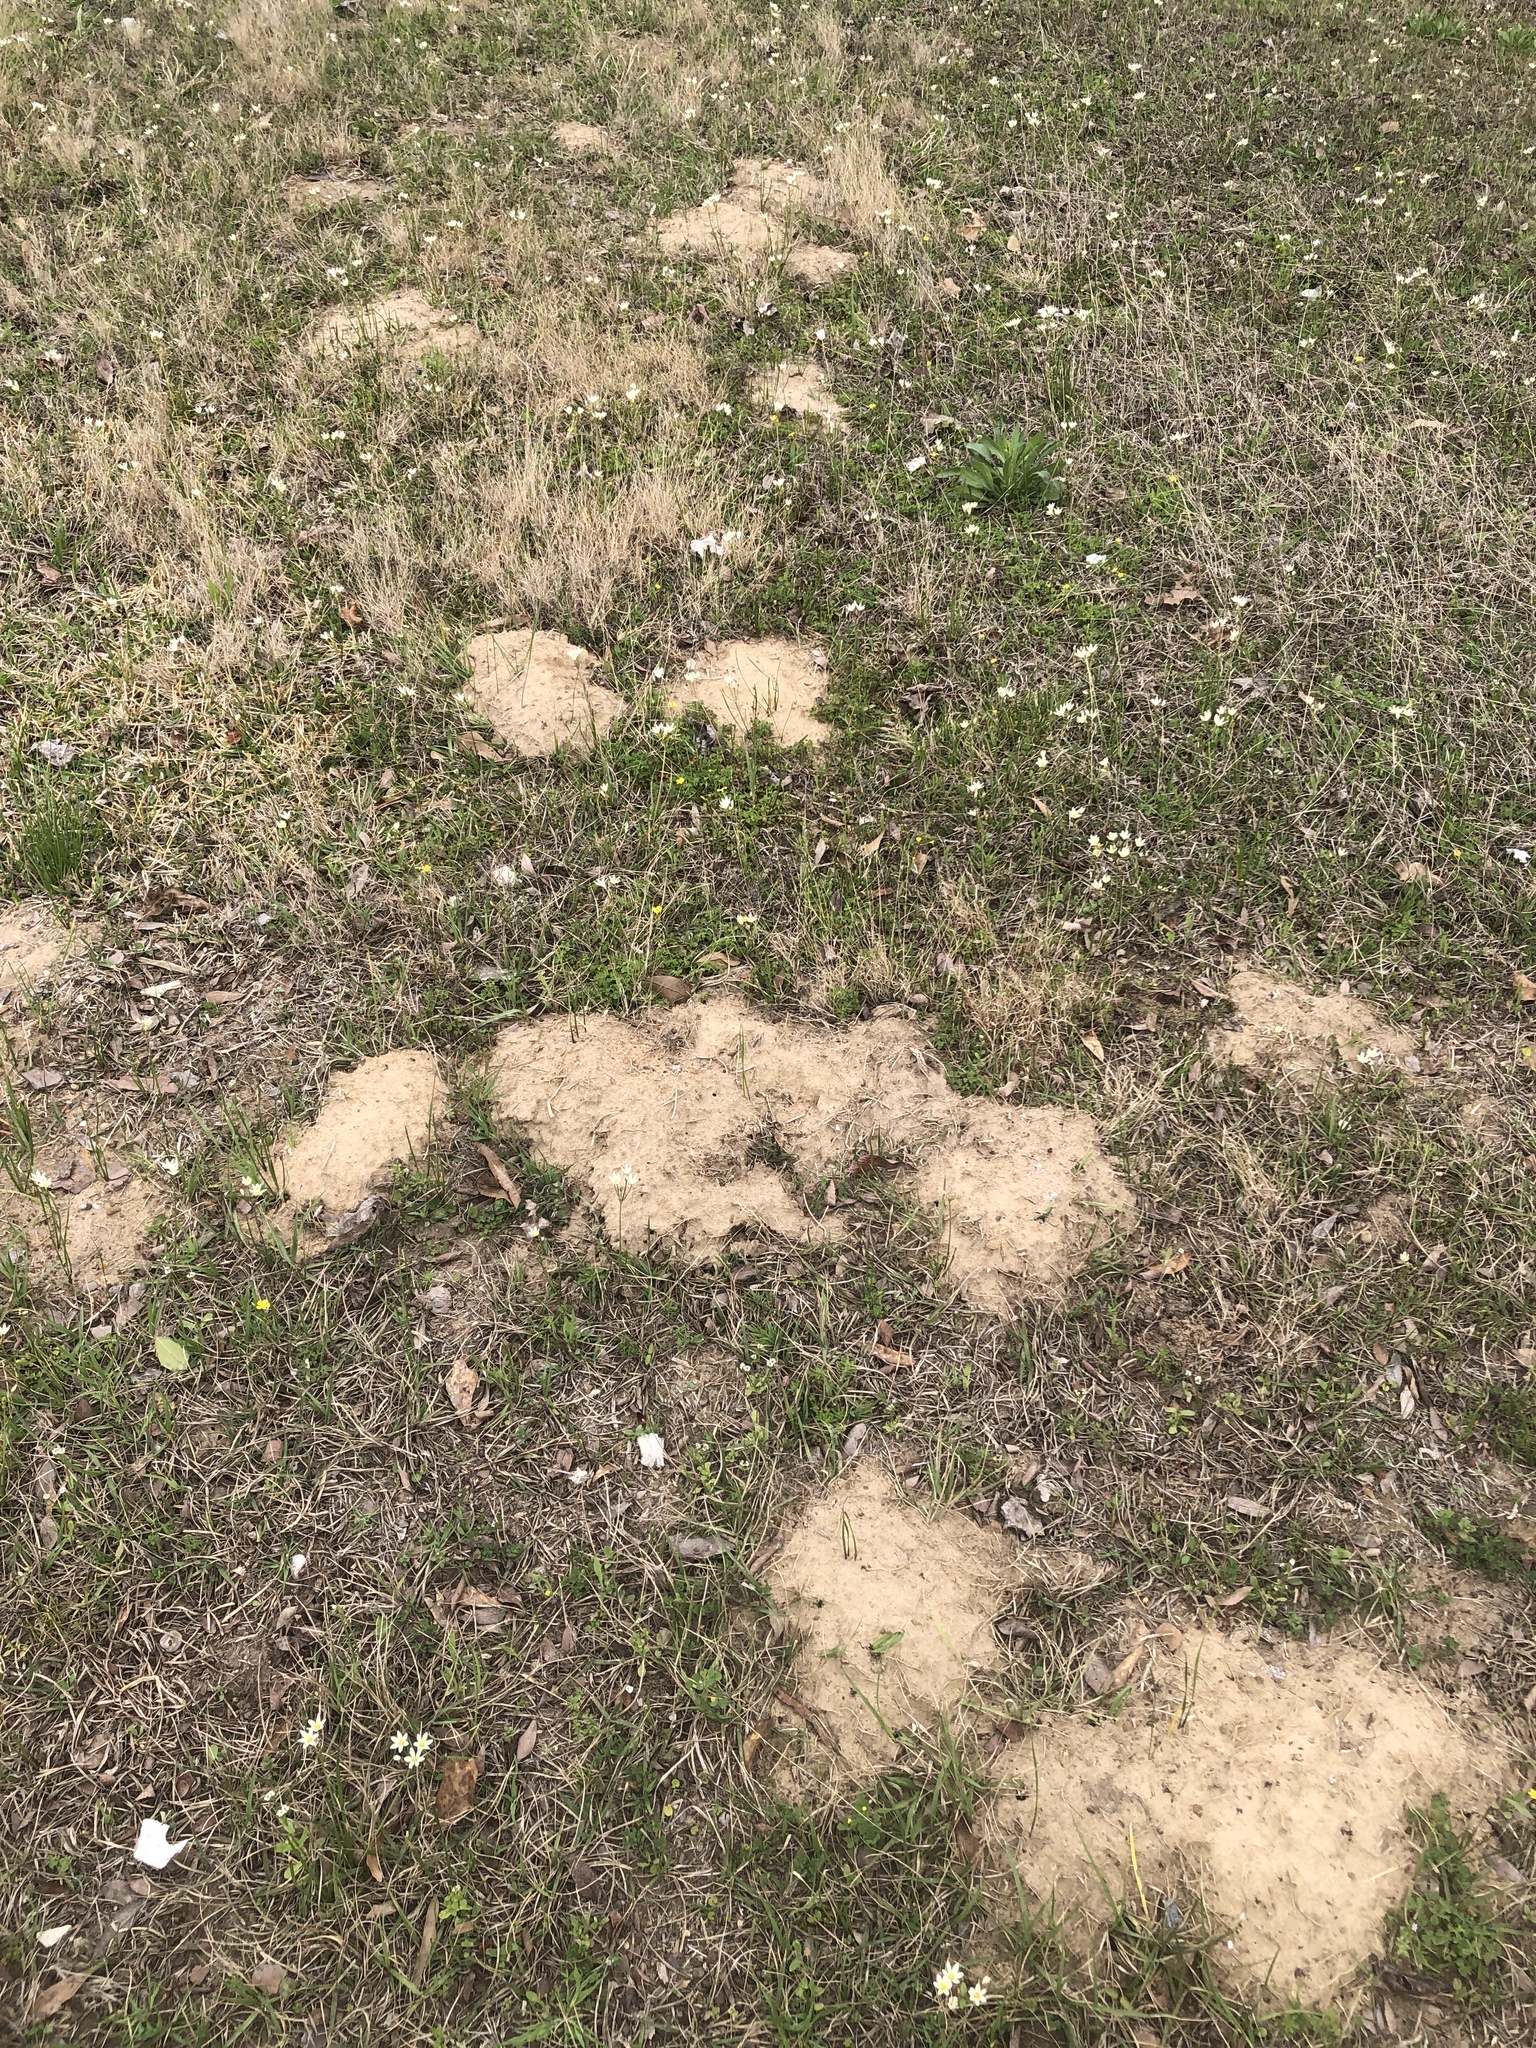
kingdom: Animalia
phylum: Chordata
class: Mammalia
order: Rodentia
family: Geomyidae
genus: Geomys
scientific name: Geomys breviceps
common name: Baird's pocket gopher
